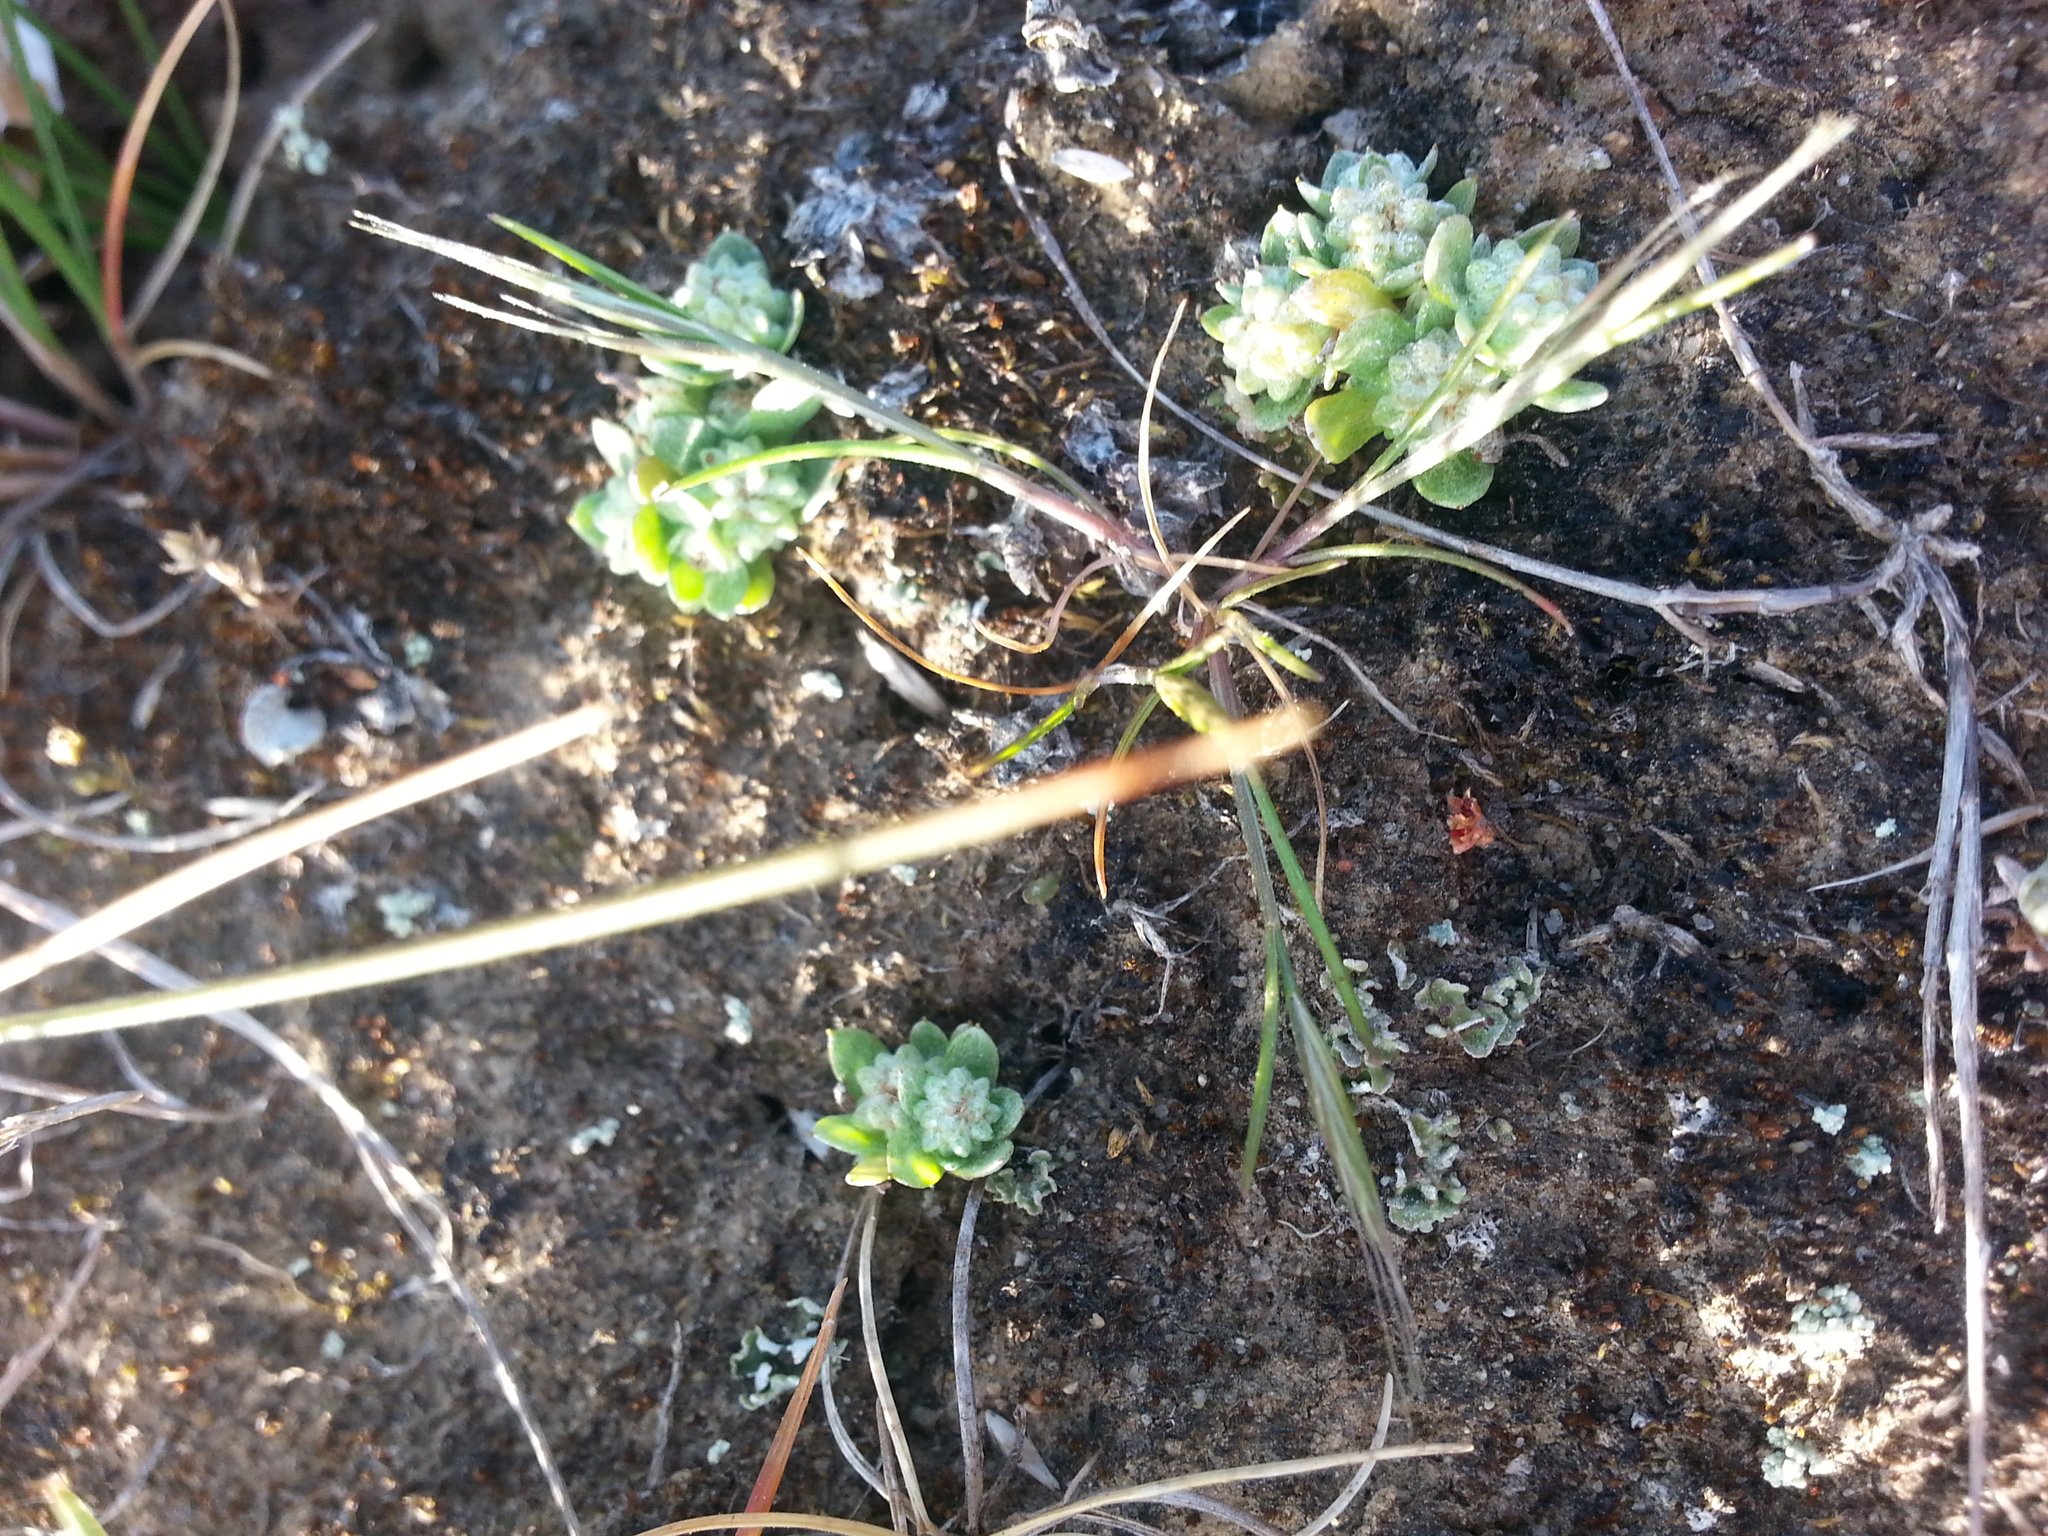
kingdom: Plantae
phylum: Tracheophyta
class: Magnoliopsida
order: Asterales
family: Asteraceae
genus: Psilocarphus
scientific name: Psilocarphus tenellus
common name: Slender woolly-marbles
